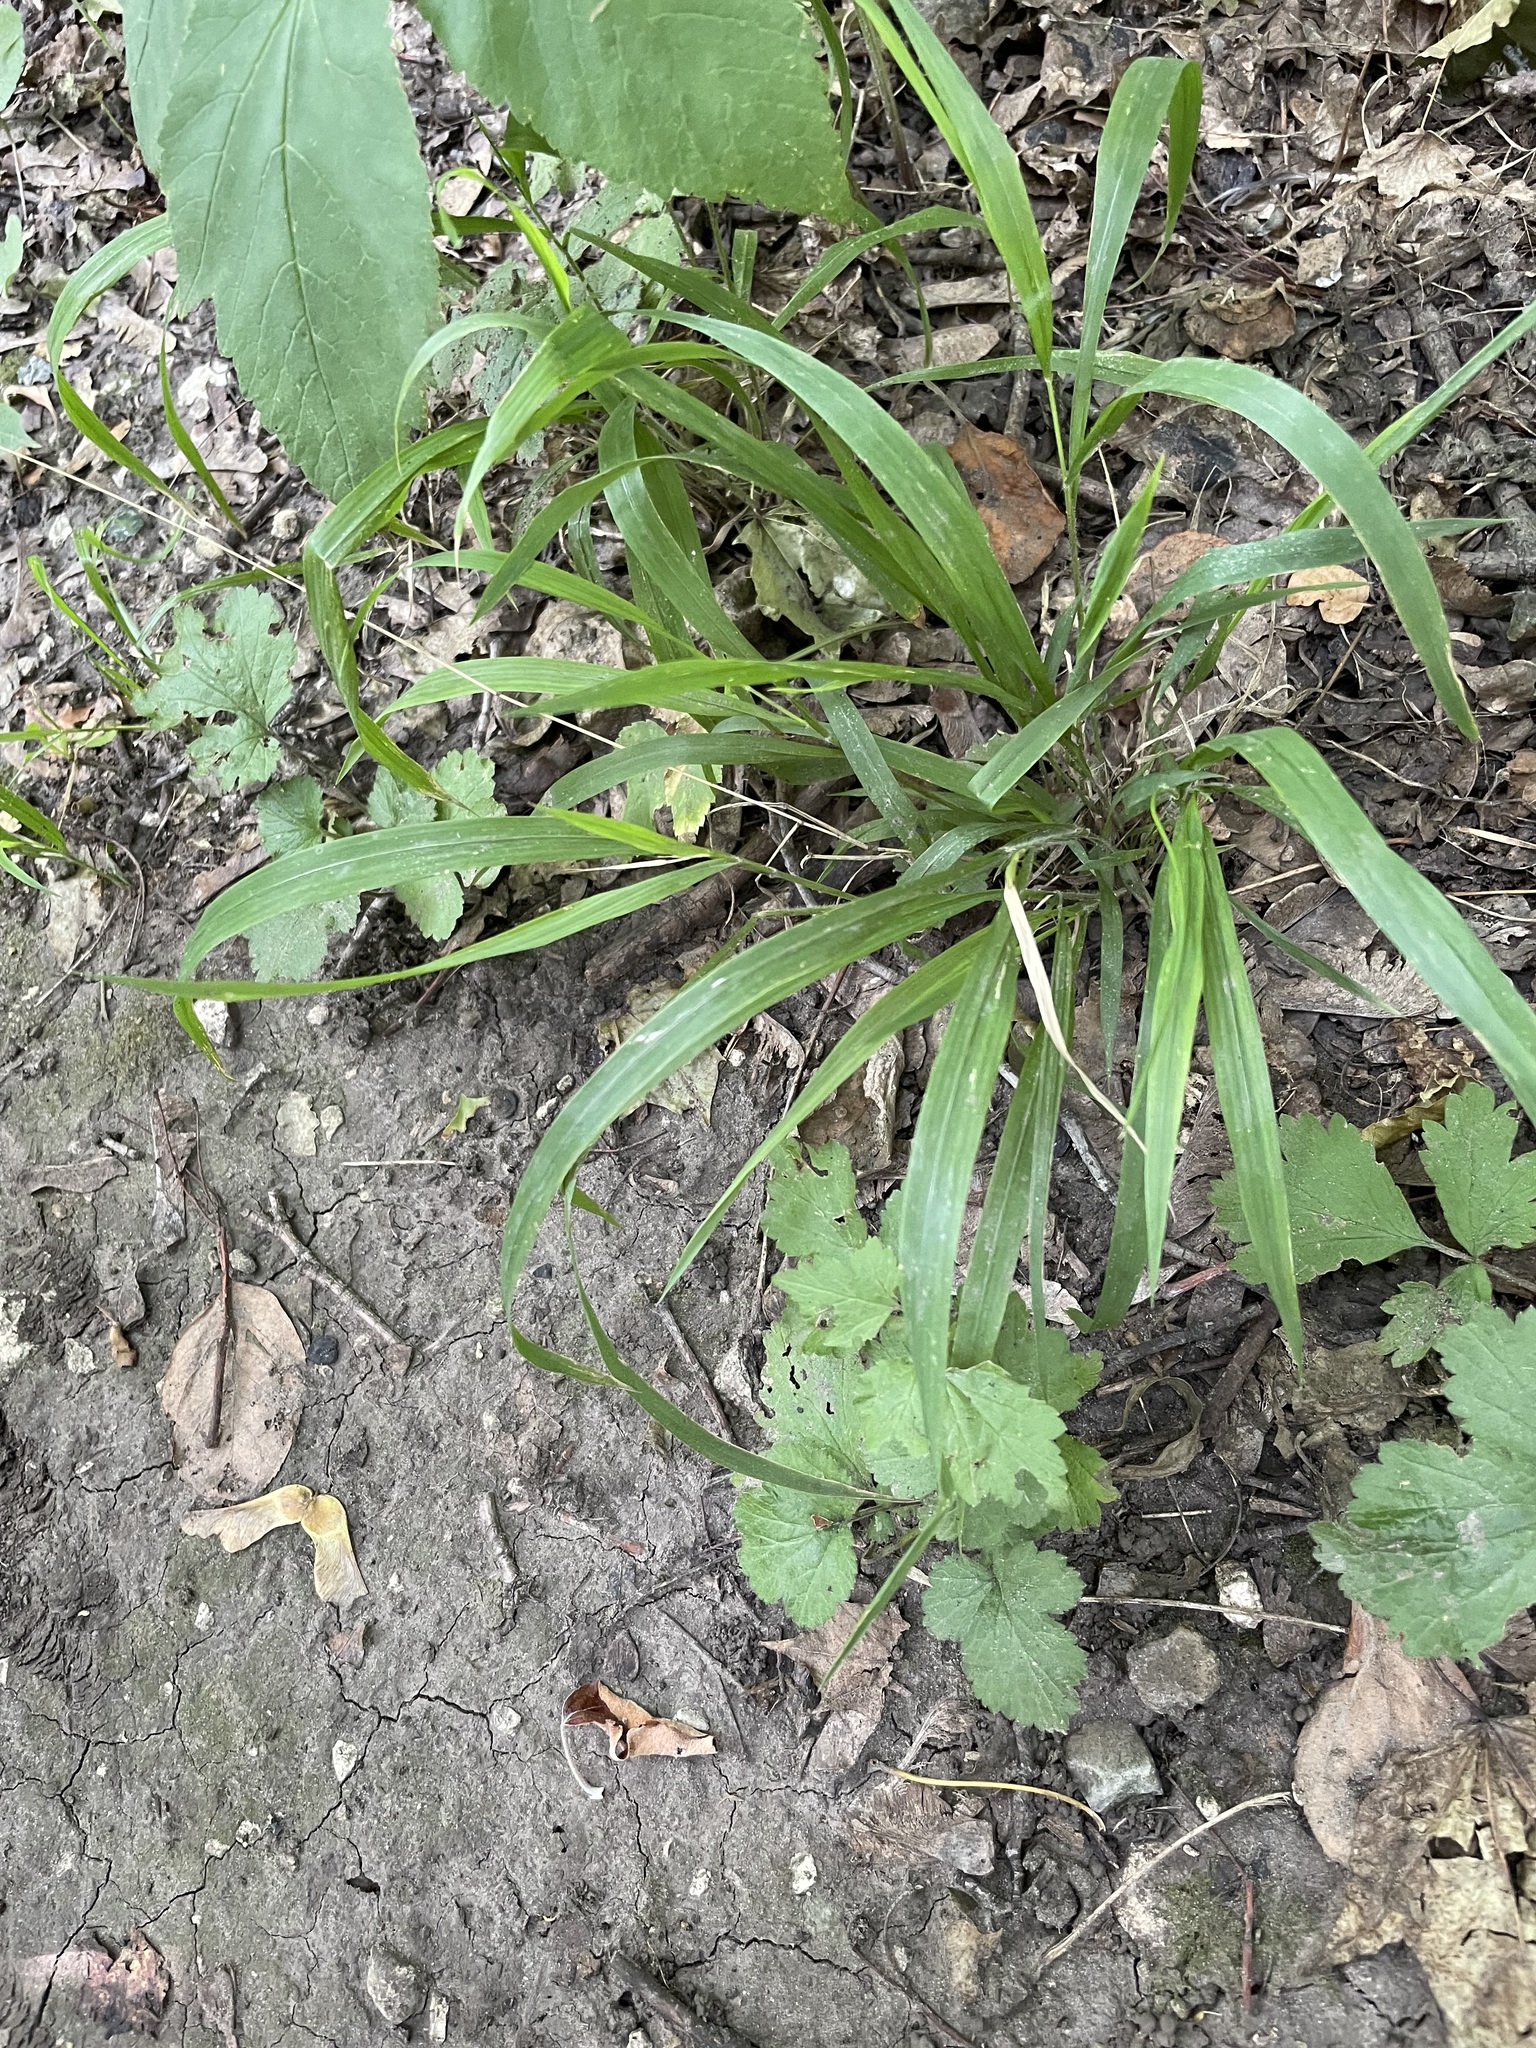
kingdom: Plantae
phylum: Tracheophyta
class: Liliopsida
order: Poales
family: Poaceae
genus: Lolium
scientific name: Lolium giganteum
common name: Giant fescue
